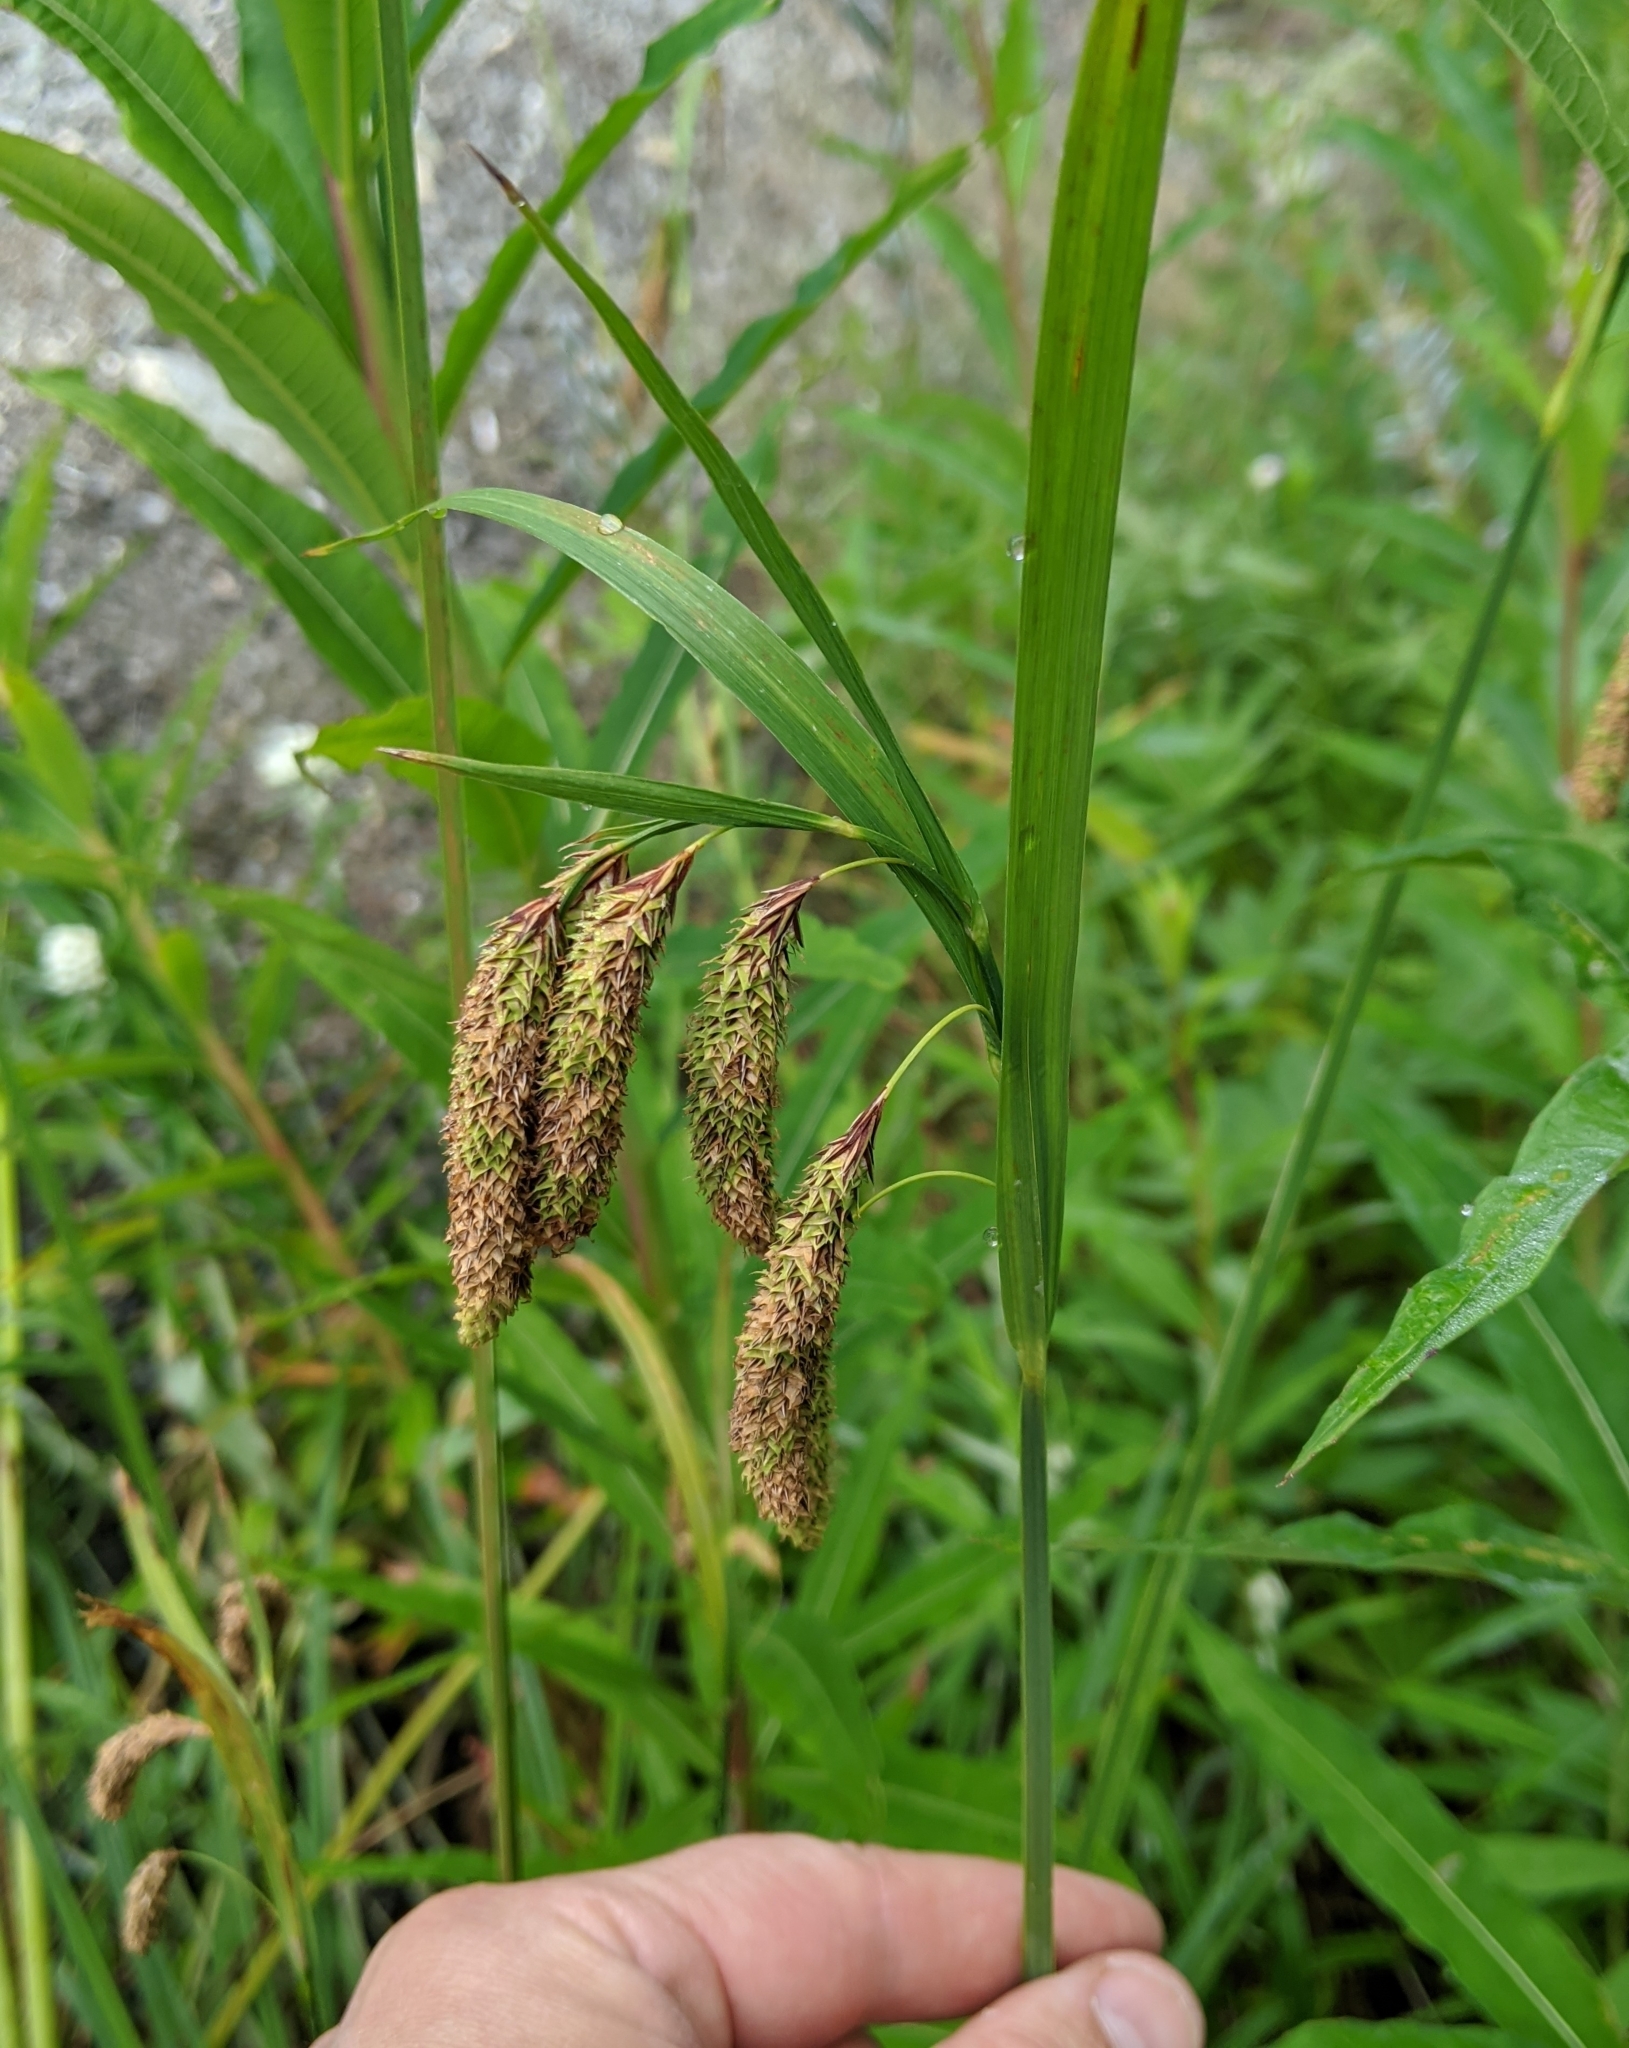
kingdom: Plantae
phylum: Tracheophyta
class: Liliopsida
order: Poales
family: Cyperaceae
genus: Carex
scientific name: Carex mertensii
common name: Mertens' sedge
